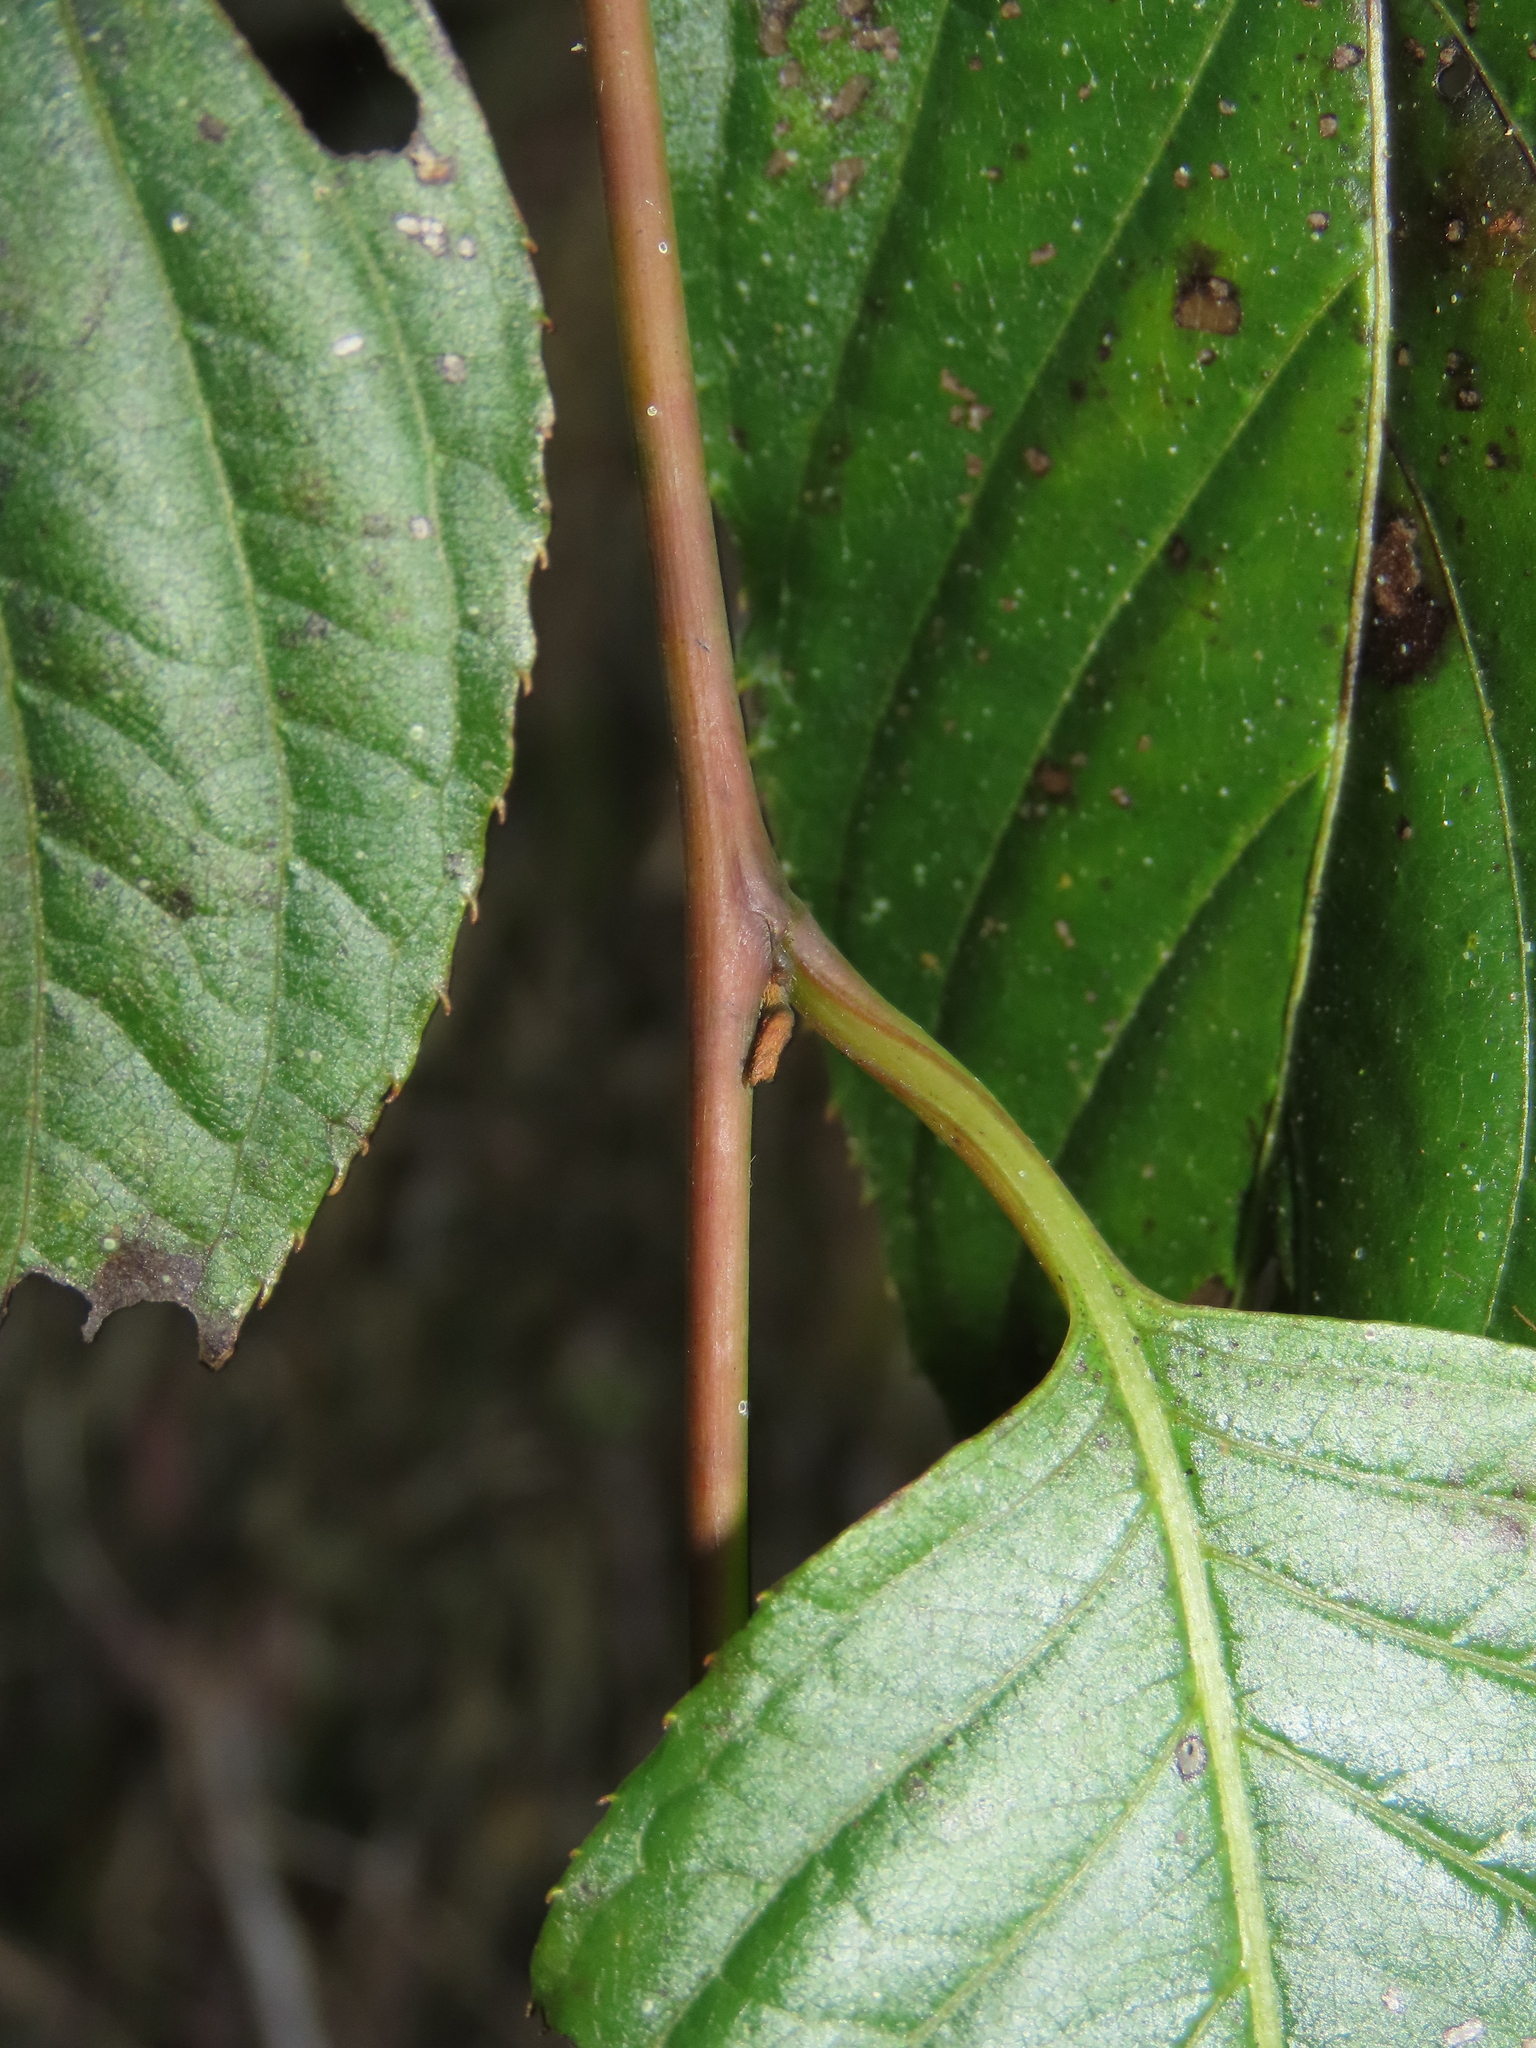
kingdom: Plantae
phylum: Tracheophyta
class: Magnoliopsida
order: Huerteales
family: Dipentodontaceae
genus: Perrottetia
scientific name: Perrottetia arisanensis
